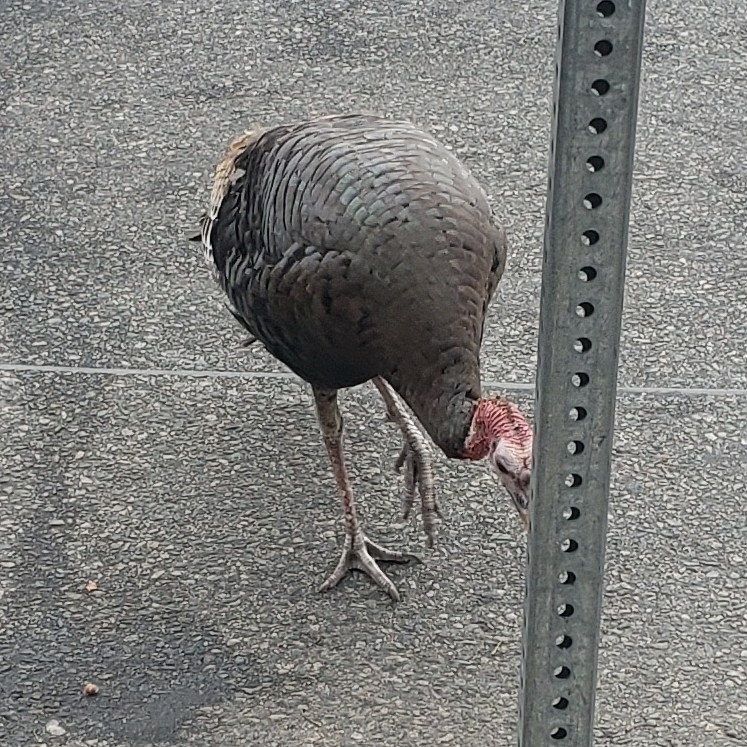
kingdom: Animalia
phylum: Chordata
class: Aves
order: Galliformes
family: Phasianidae
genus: Meleagris
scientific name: Meleagris gallopavo
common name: Wild turkey
